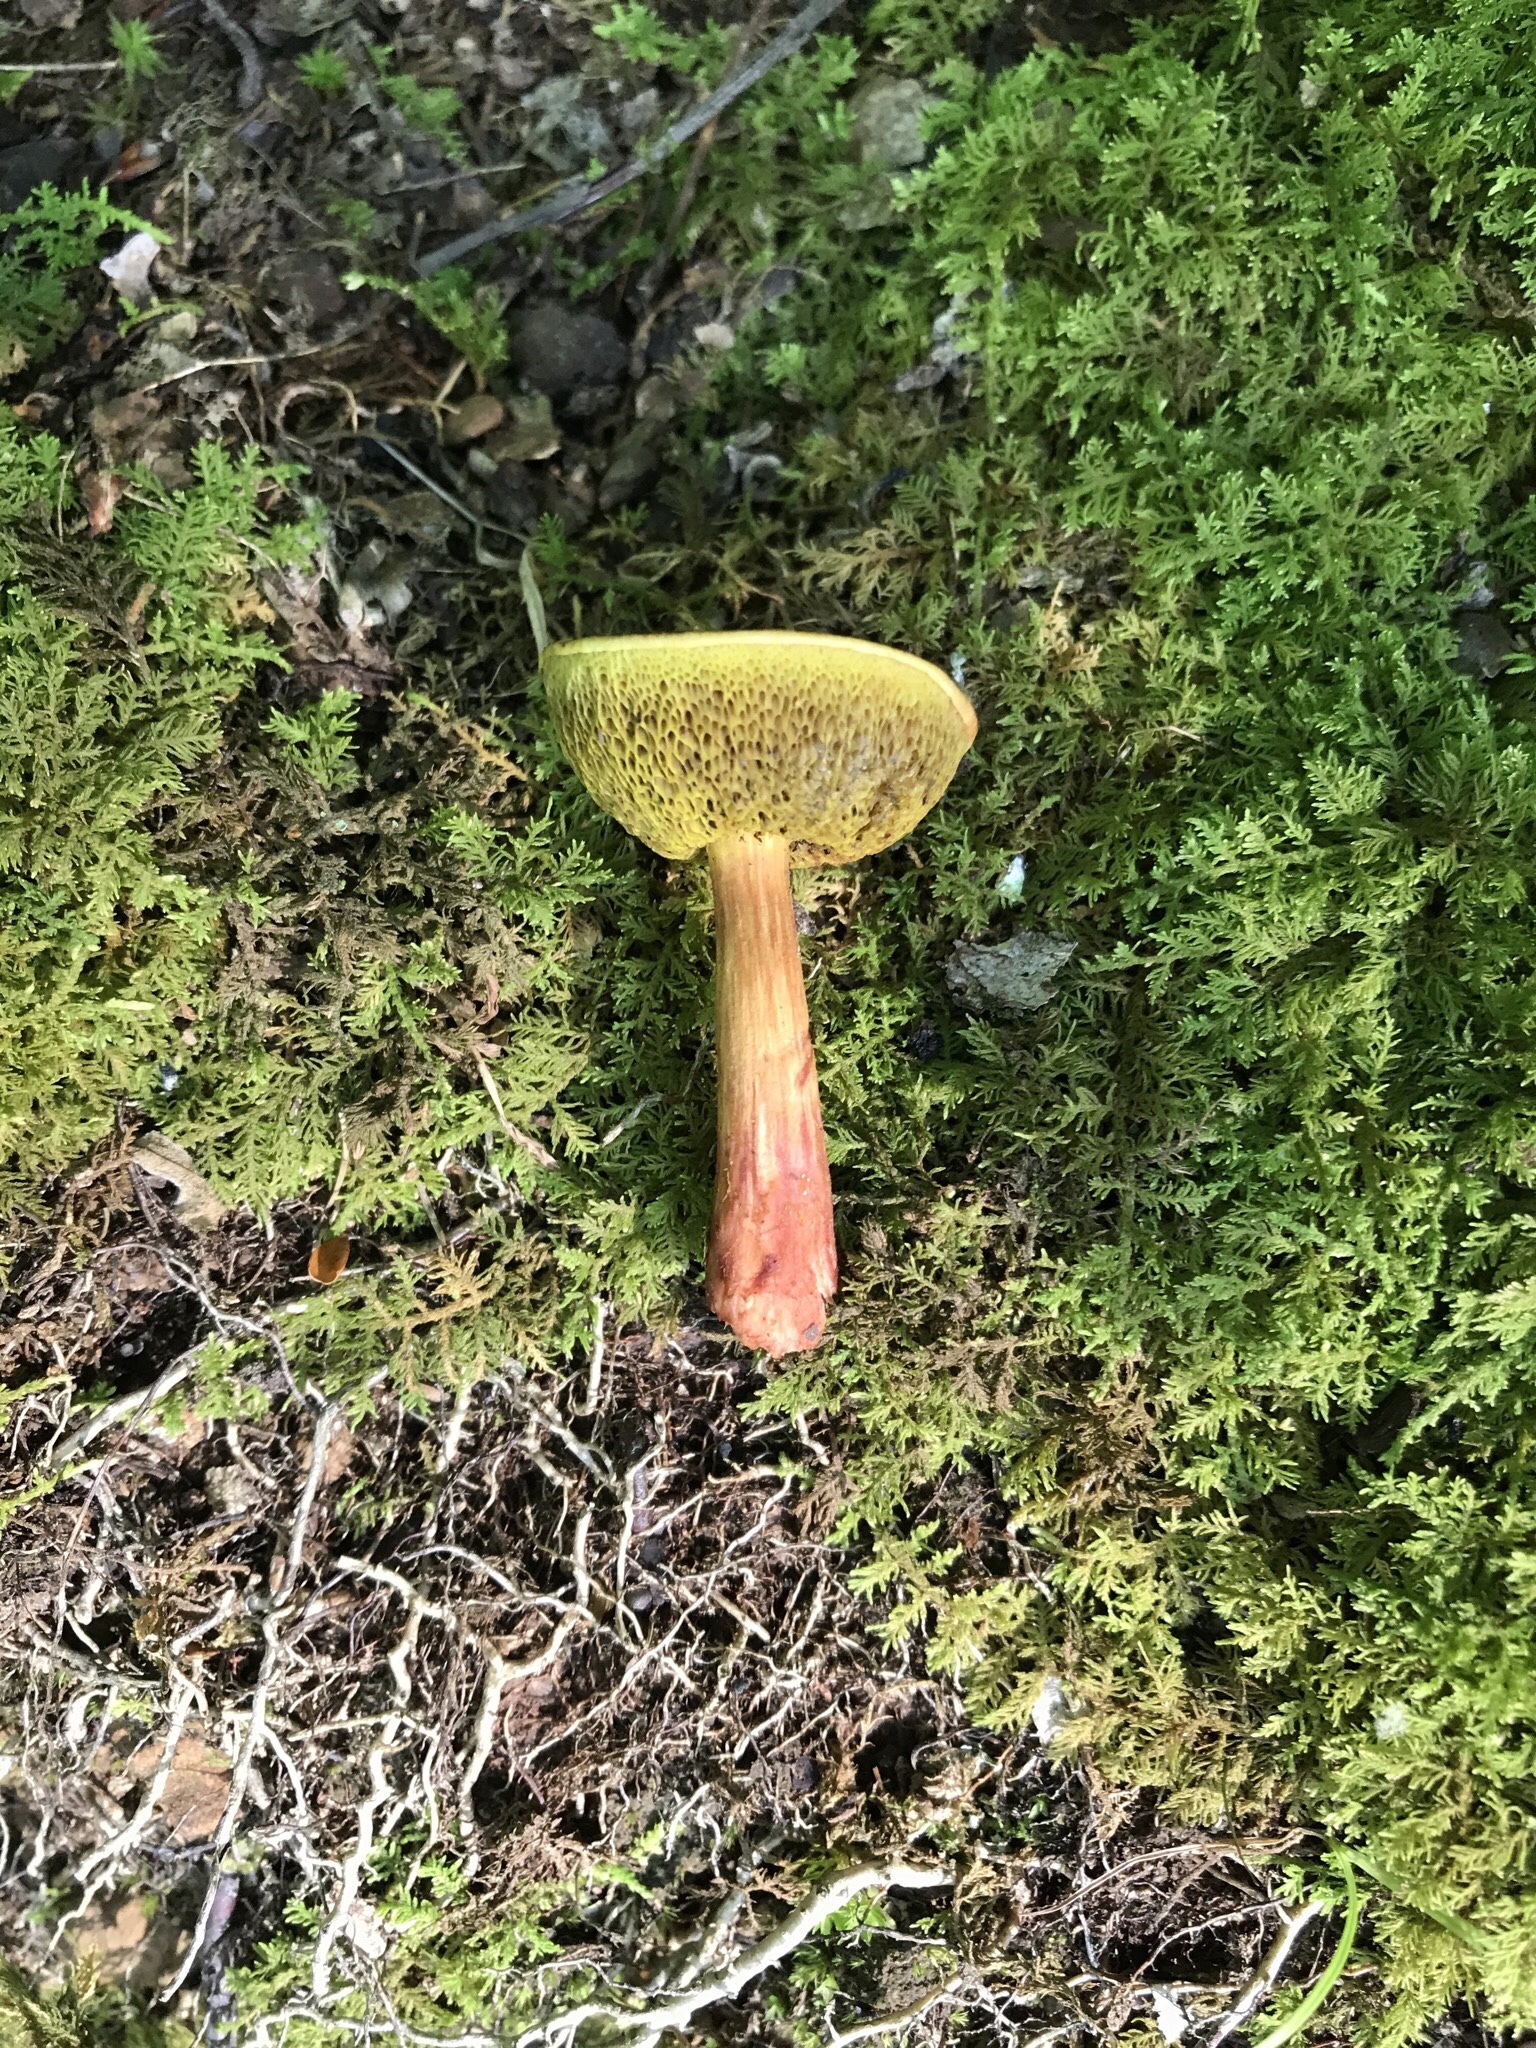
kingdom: Fungi
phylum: Basidiomycota
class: Agaricomycetes
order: Boletales
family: Boletaceae
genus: Aureoboletus
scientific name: Aureoboletus auriporus
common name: Sour gold-pored bolete
